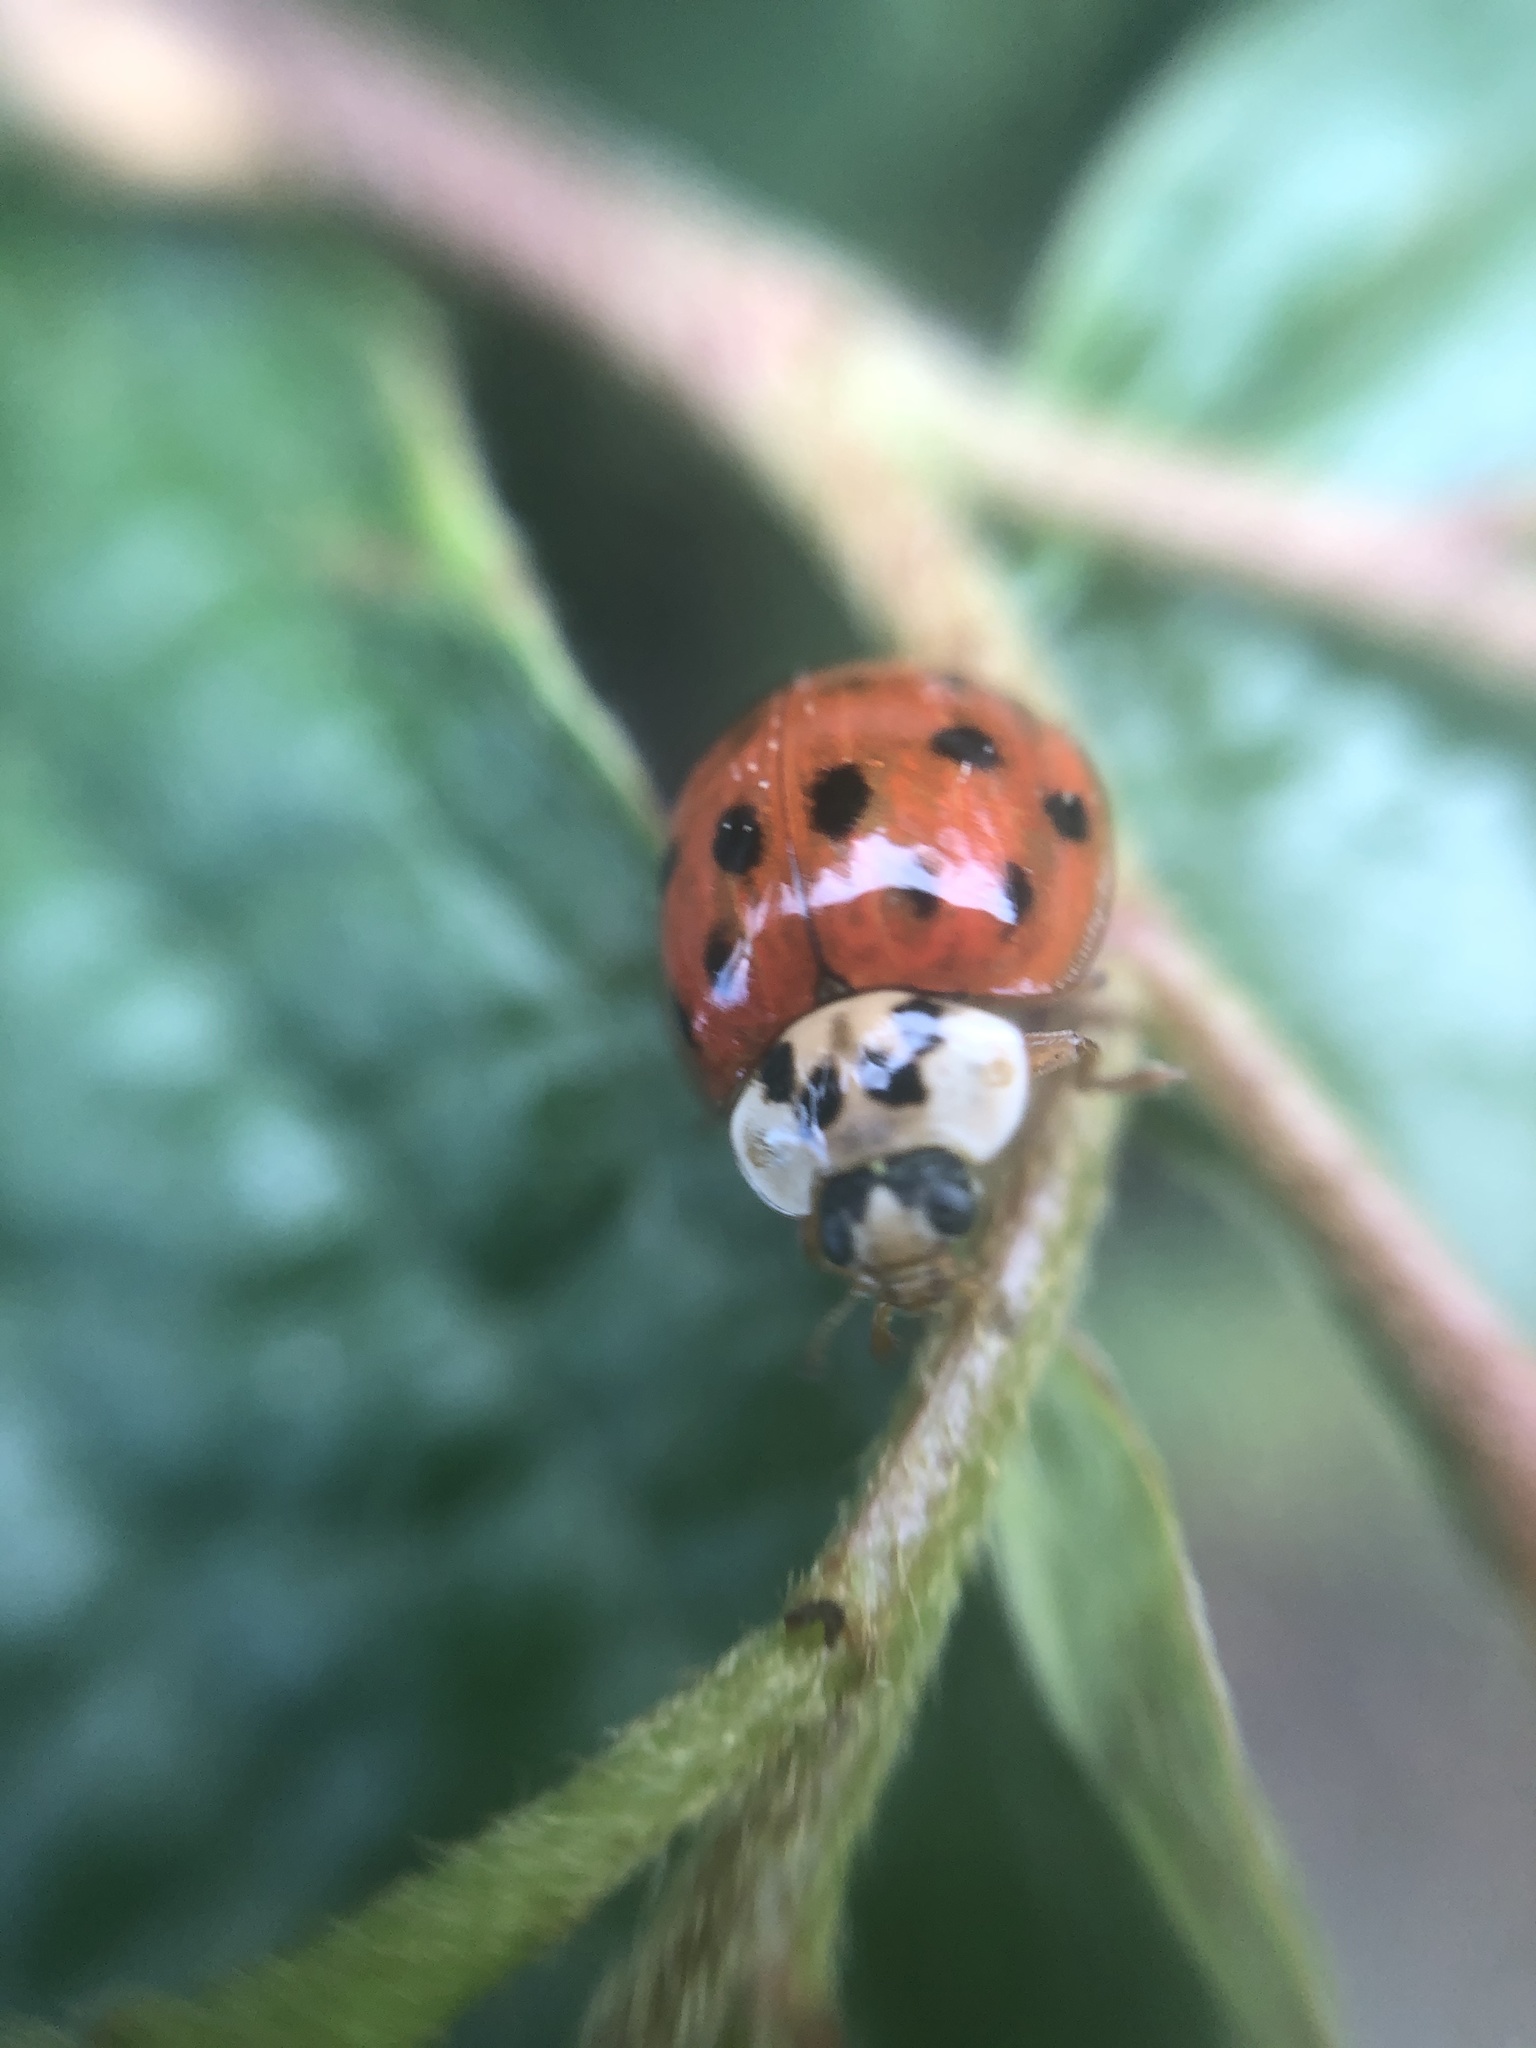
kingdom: Animalia
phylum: Arthropoda
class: Insecta
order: Coleoptera
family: Coccinellidae
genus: Harmonia
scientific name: Harmonia axyridis
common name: Harlequin ladybird
